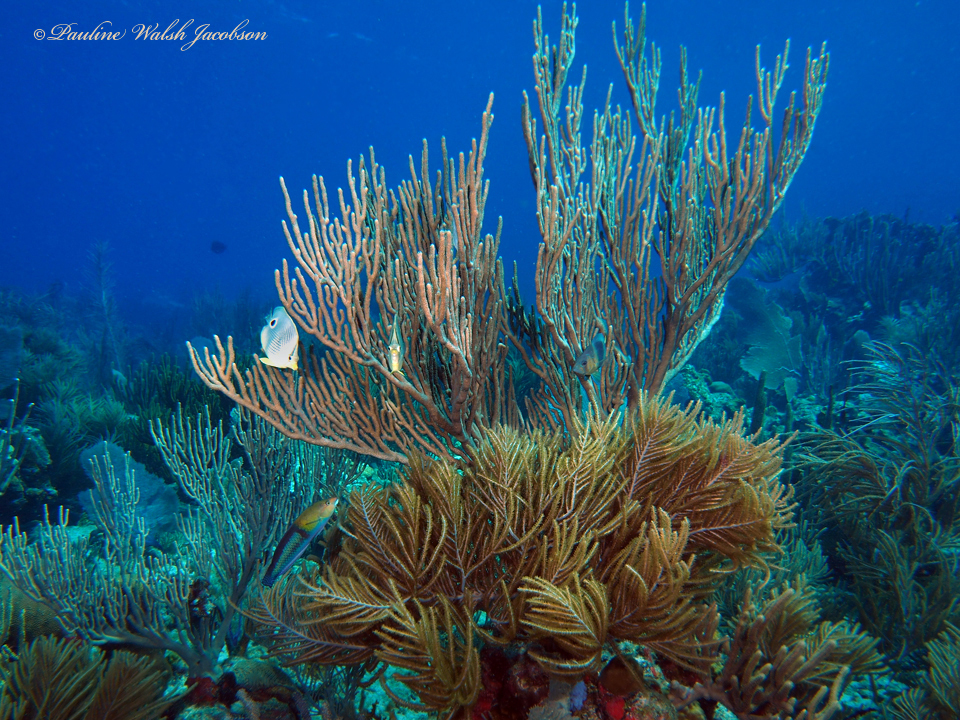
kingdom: Animalia
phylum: Chordata
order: Perciformes
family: Labridae
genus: Halichoeres
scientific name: Halichoeres garnoti
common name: Yellowhead wrasse
